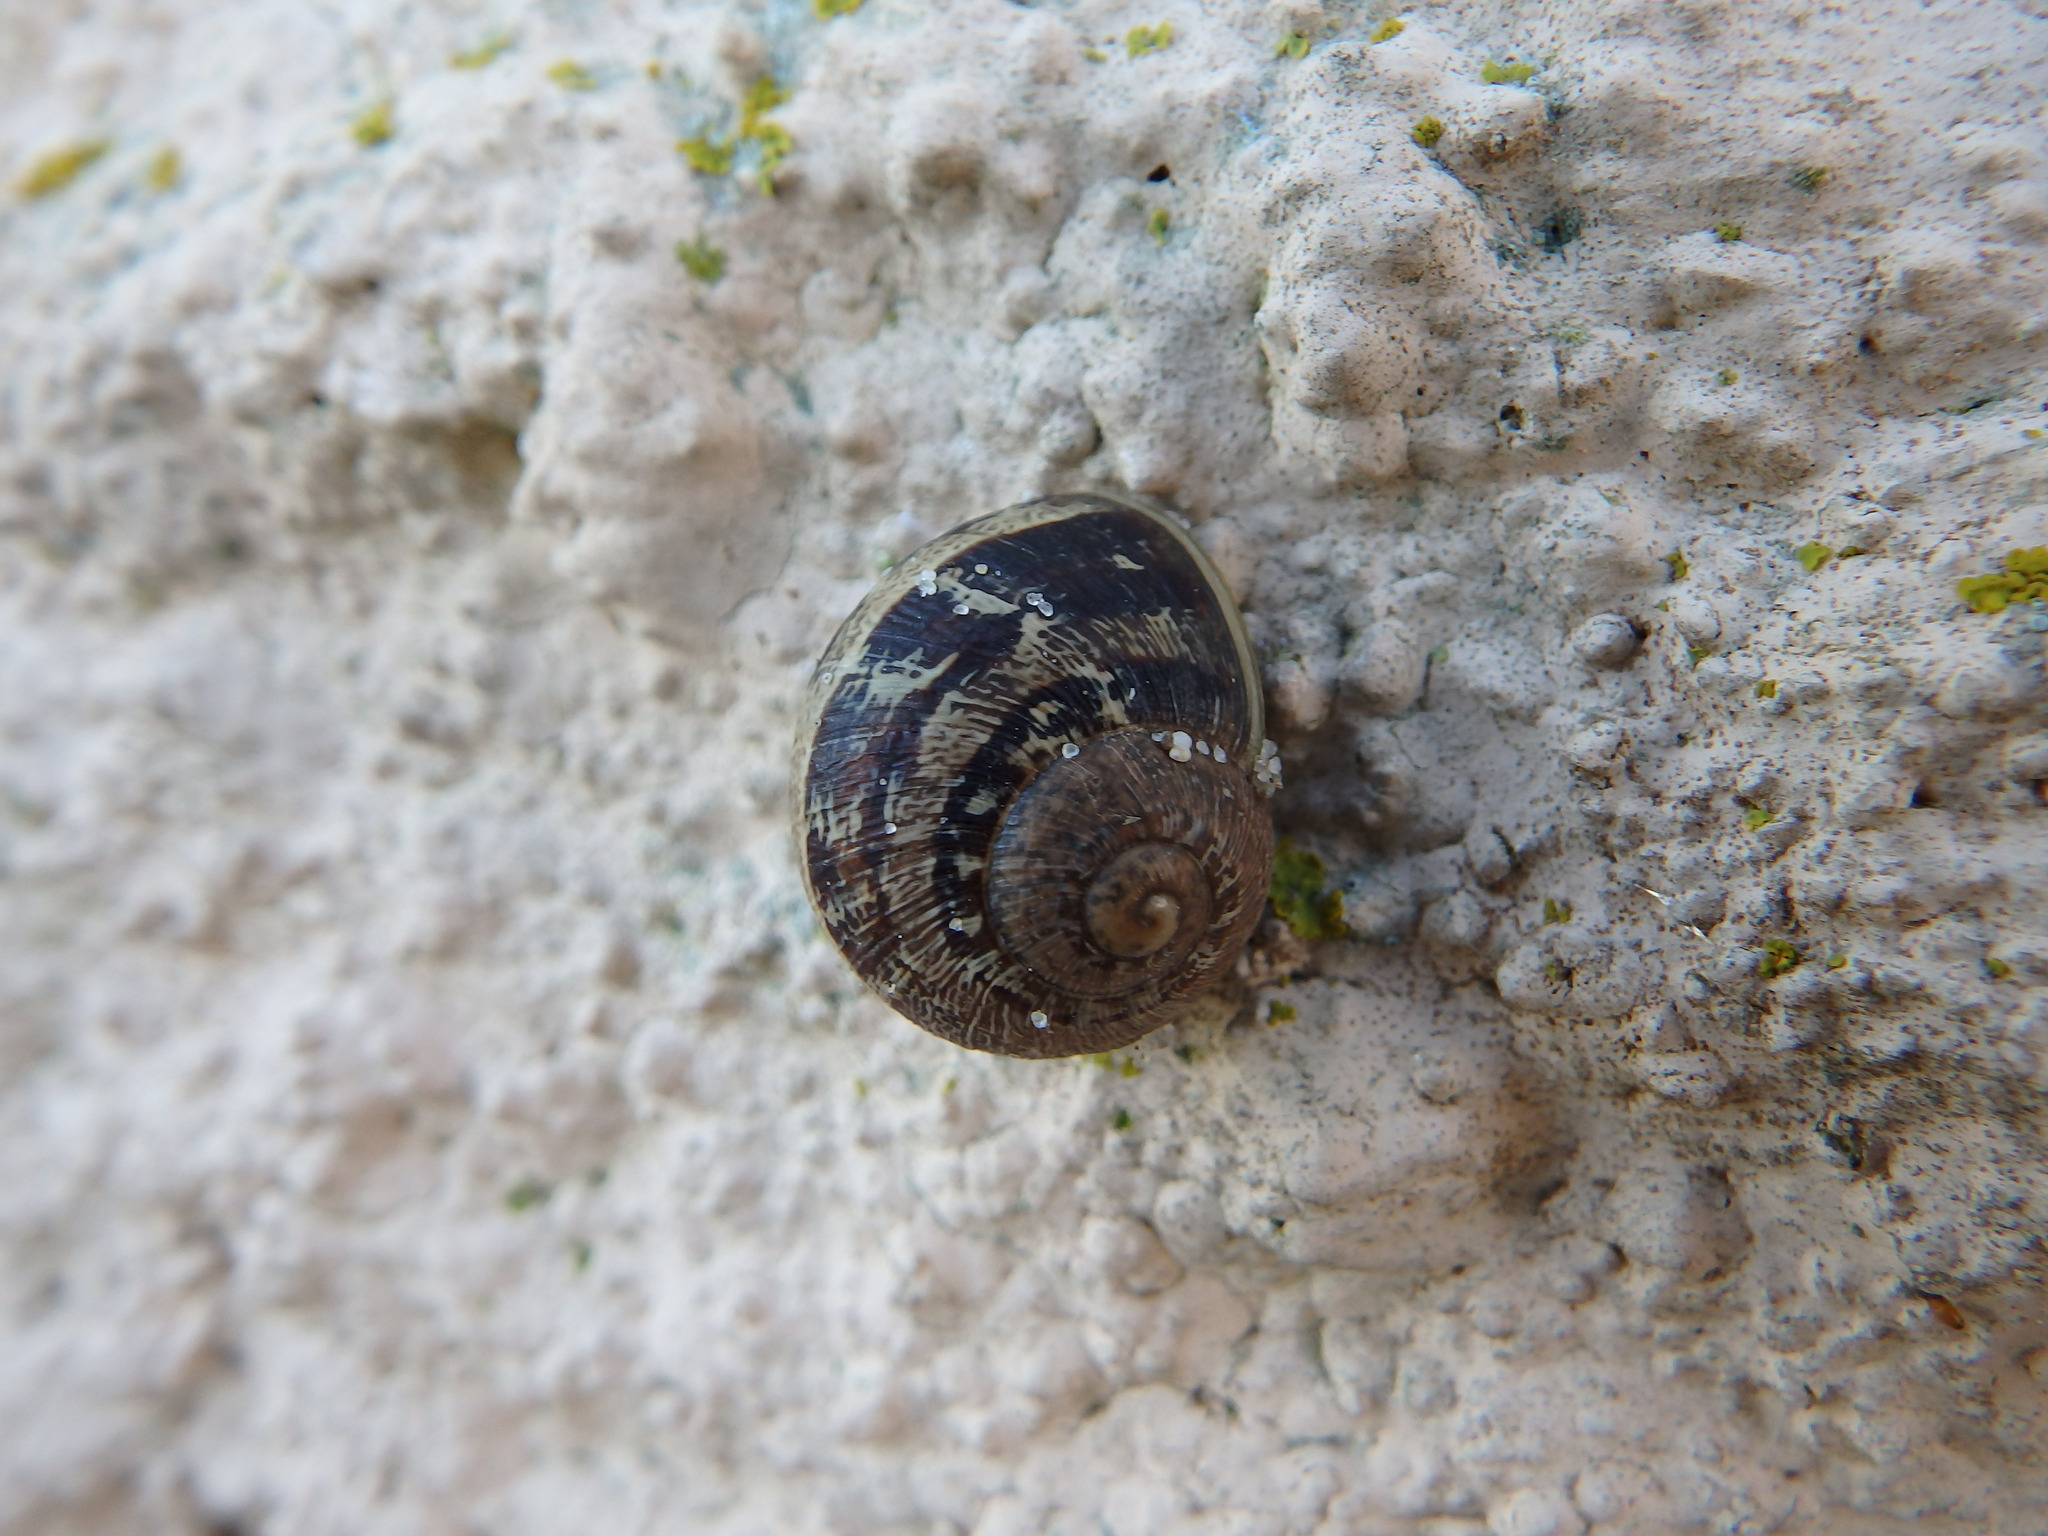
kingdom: Animalia
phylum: Mollusca
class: Gastropoda
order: Stylommatophora
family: Helicidae
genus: Cornu
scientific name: Cornu aspersum
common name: Brown garden snail
